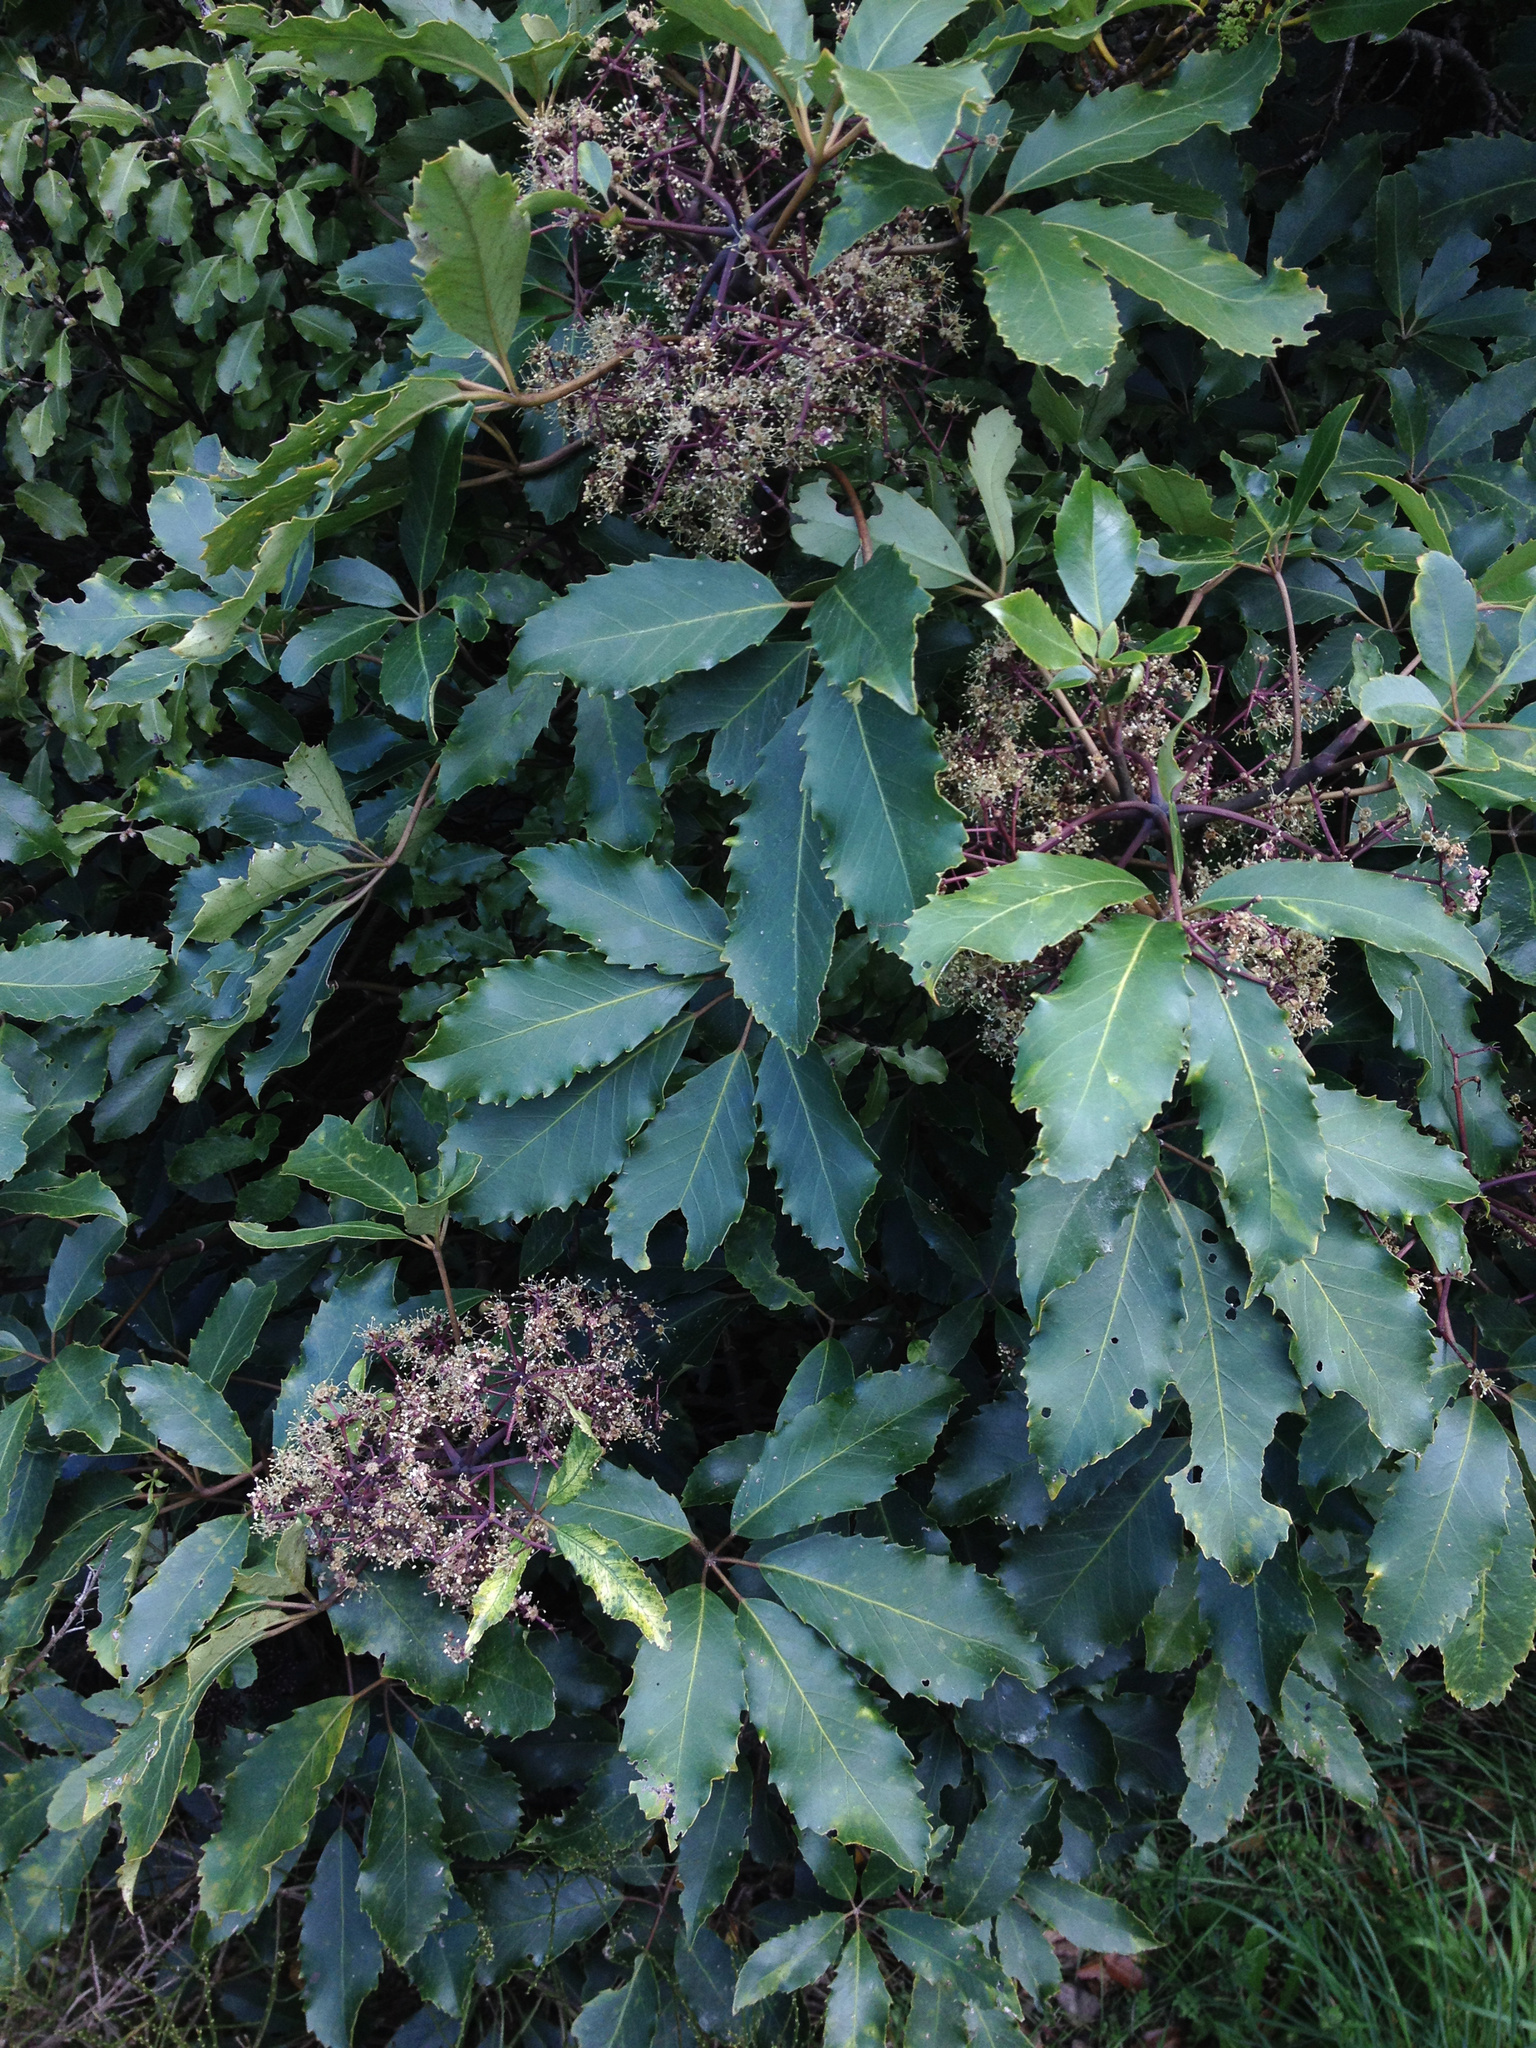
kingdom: Plantae
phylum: Tracheophyta
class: Magnoliopsida
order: Apiales
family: Araliaceae
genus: Neopanax
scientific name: Neopanax arboreus
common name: Five-fingers
